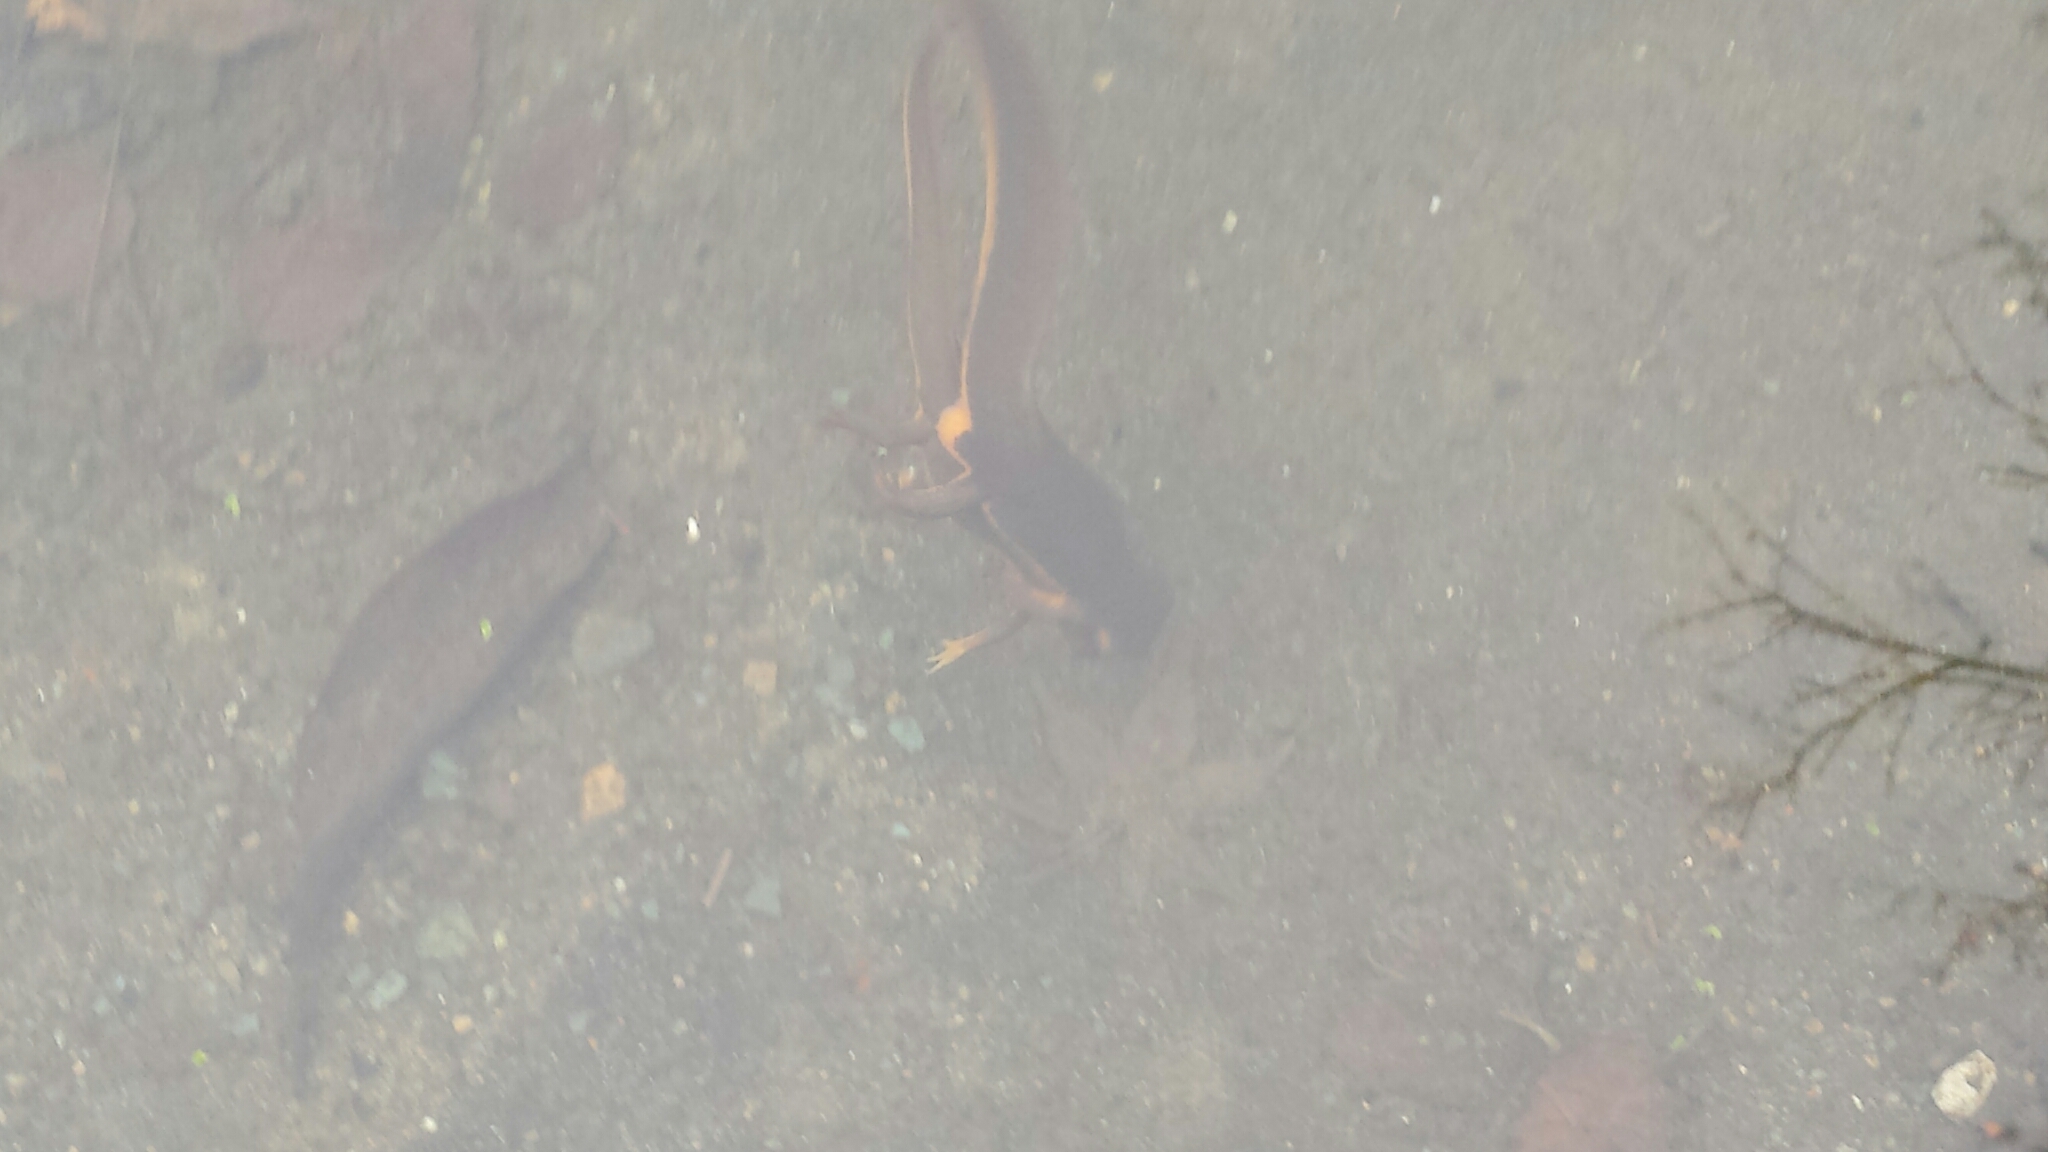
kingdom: Animalia
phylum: Chordata
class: Amphibia
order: Caudata
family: Salamandridae
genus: Taricha
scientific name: Taricha torosa
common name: California newt
